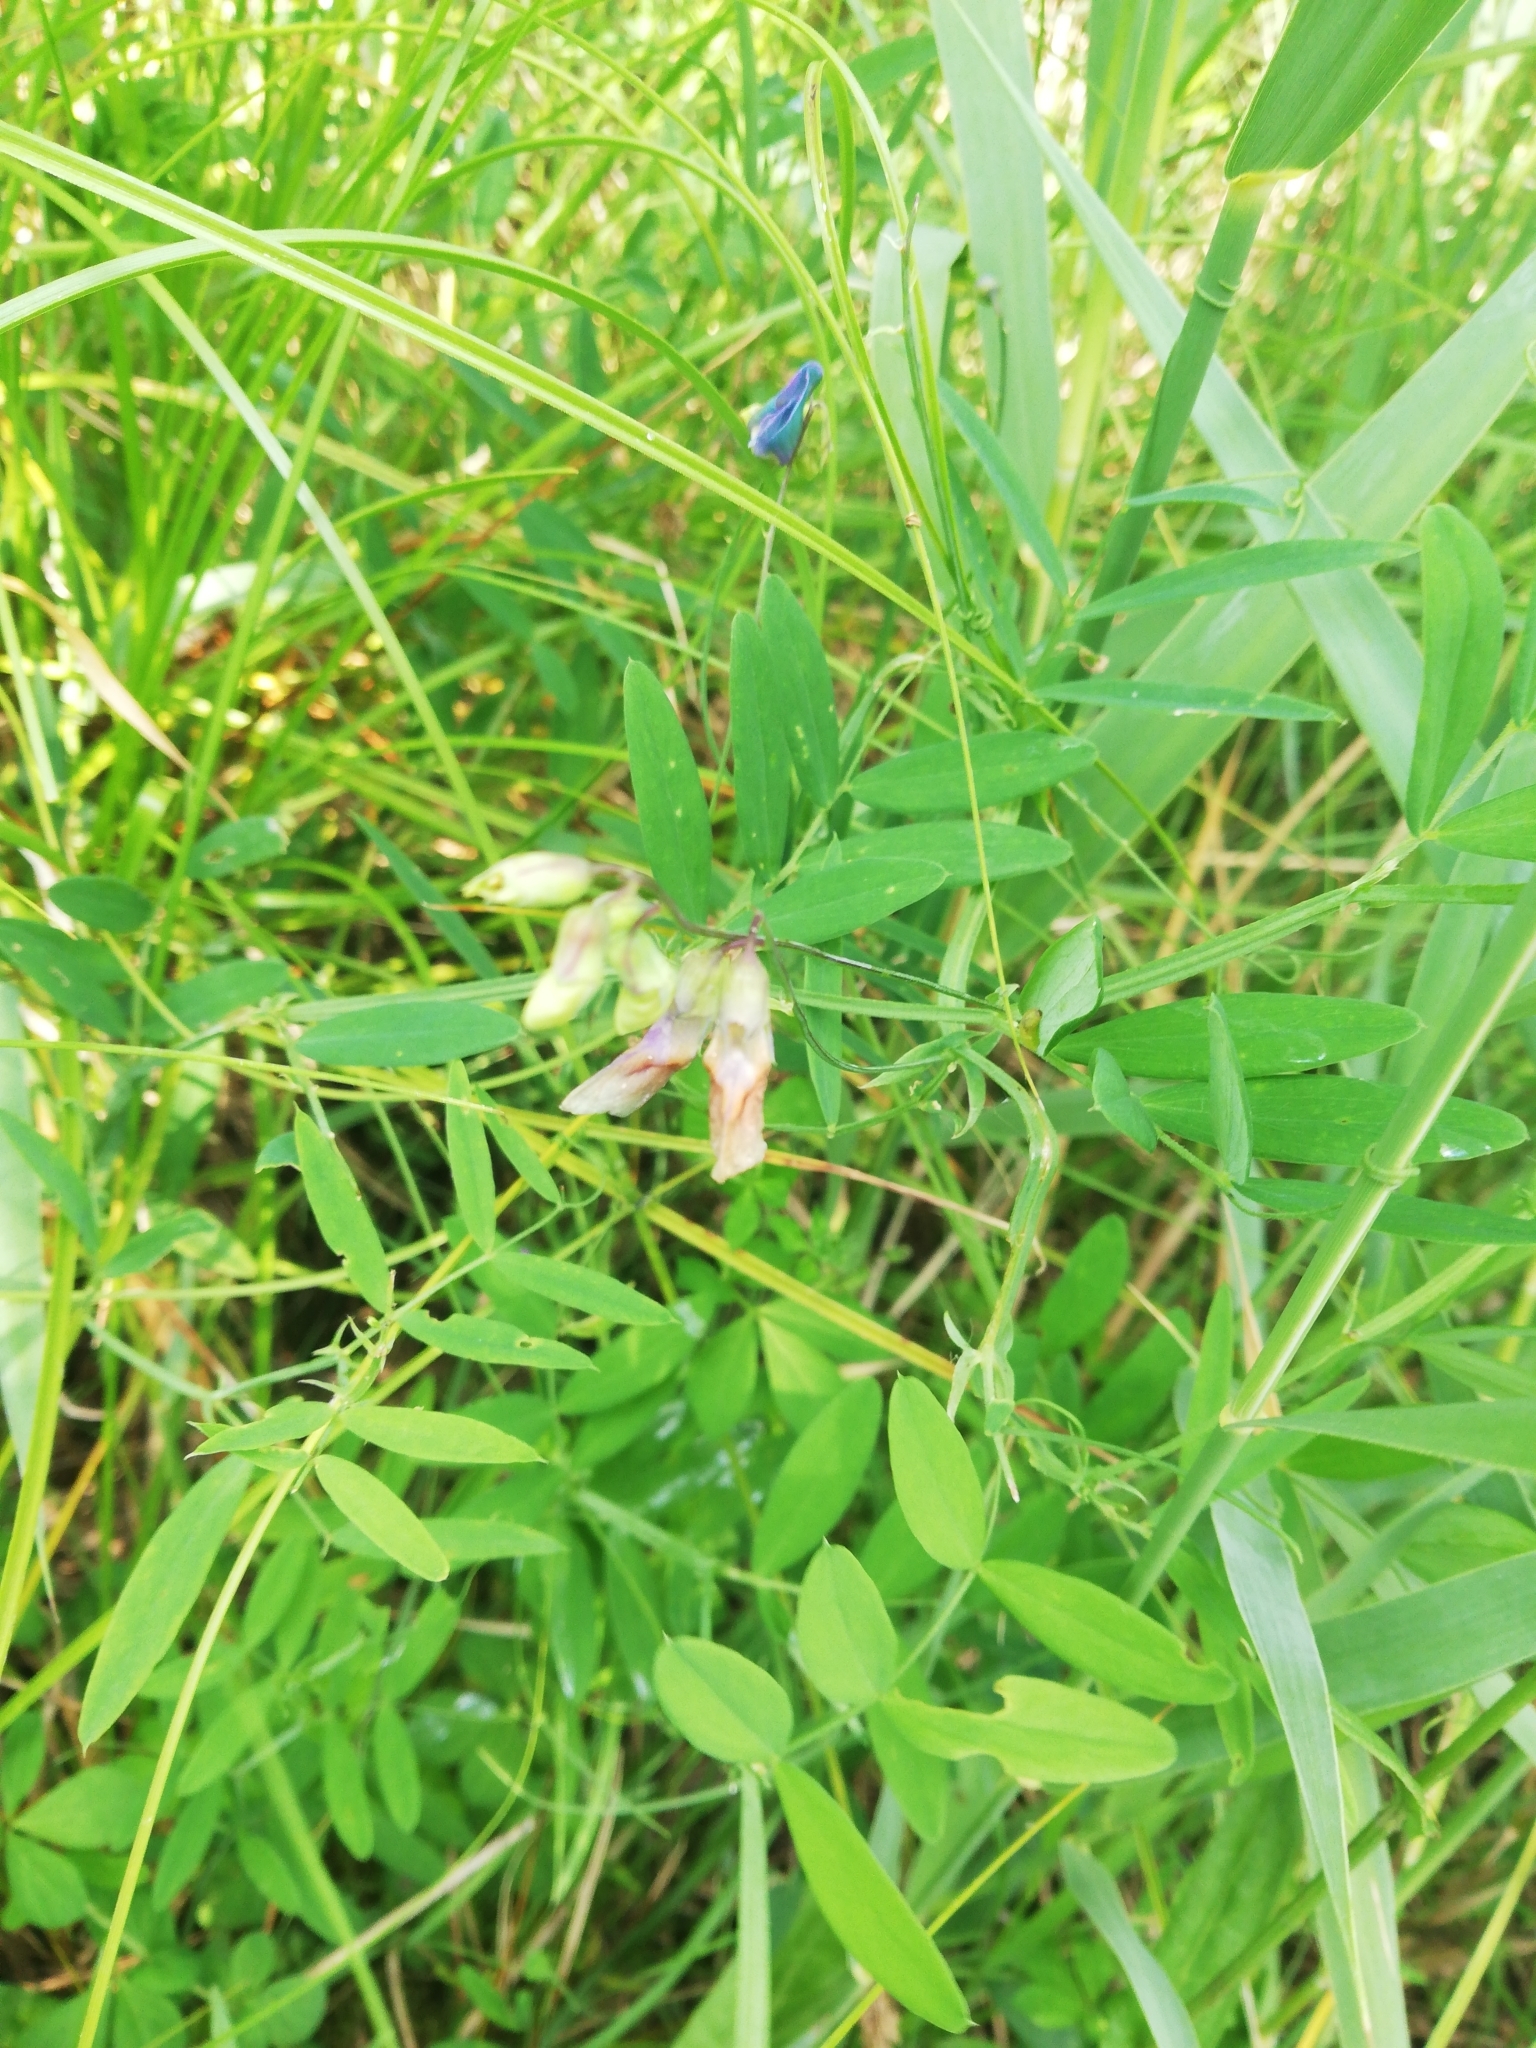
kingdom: Plantae
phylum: Tracheophyta
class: Magnoliopsida
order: Fabales
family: Fabaceae
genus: Lathyrus
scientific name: Lathyrus palustris
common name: Marsh pea
